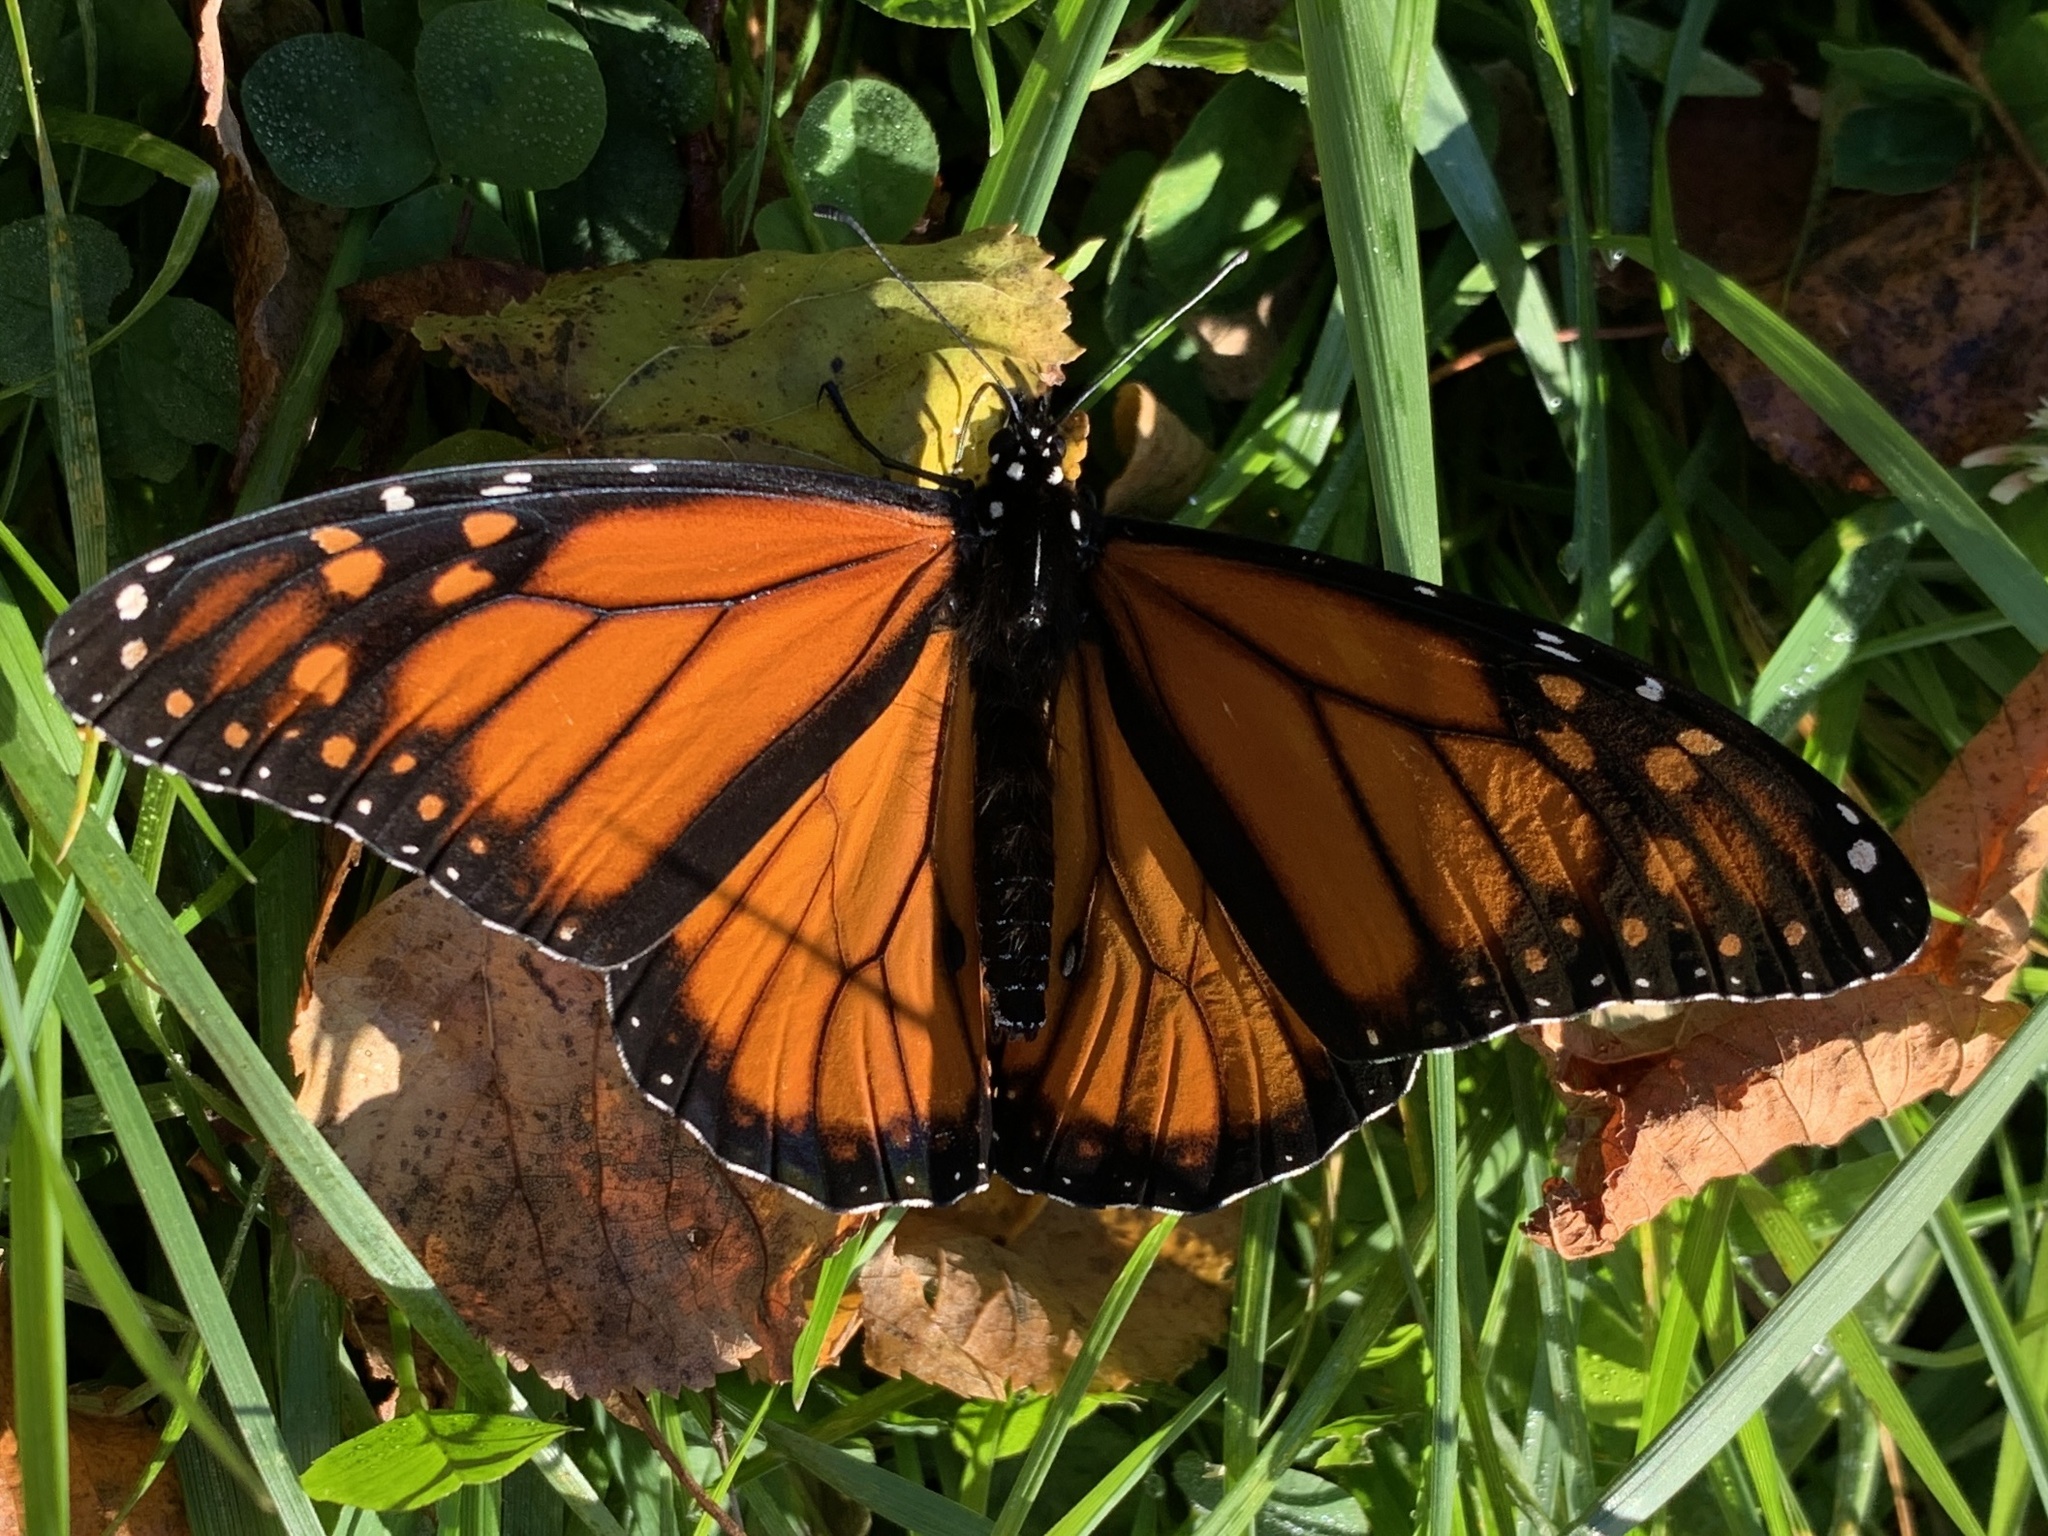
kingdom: Animalia
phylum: Arthropoda
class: Insecta
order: Lepidoptera
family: Nymphalidae
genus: Danaus
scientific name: Danaus plexippus
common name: Monarch
